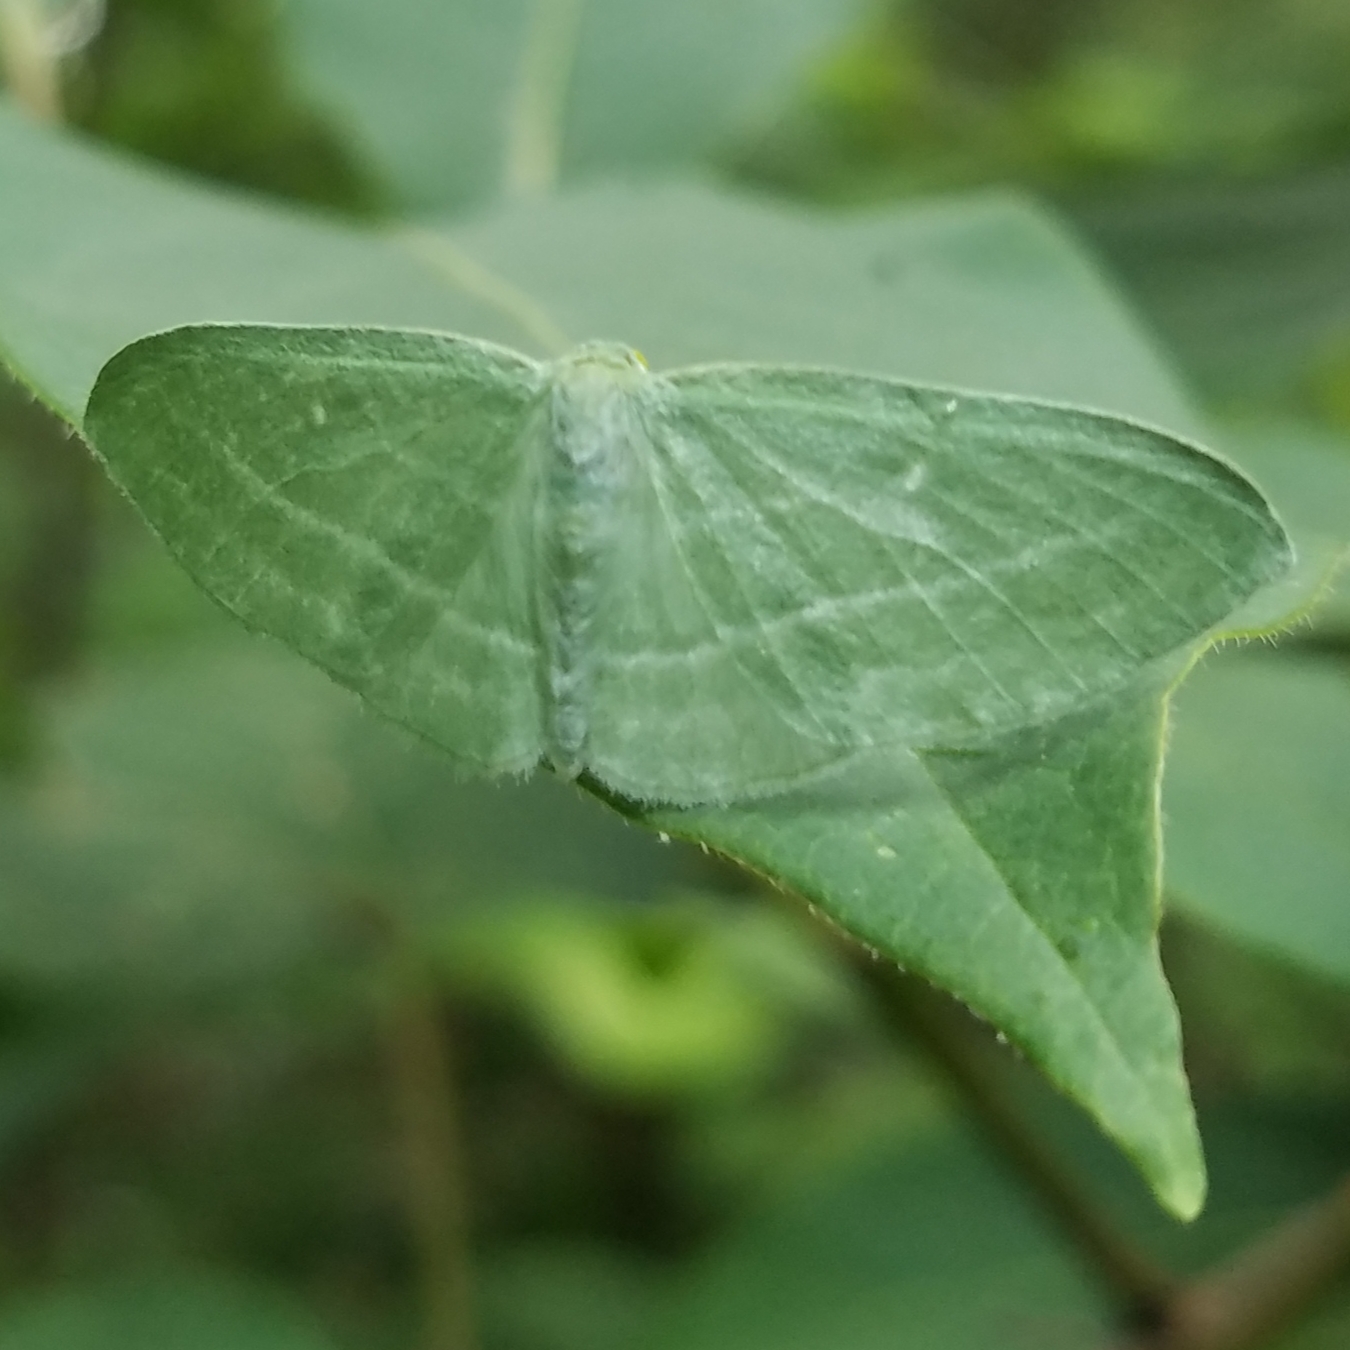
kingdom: Animalia
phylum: Arthropoda
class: Insecta
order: Lepidoptera
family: Geometridae
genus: Dyspteris
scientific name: Dyspteris abortivaria
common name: Bad-wing
